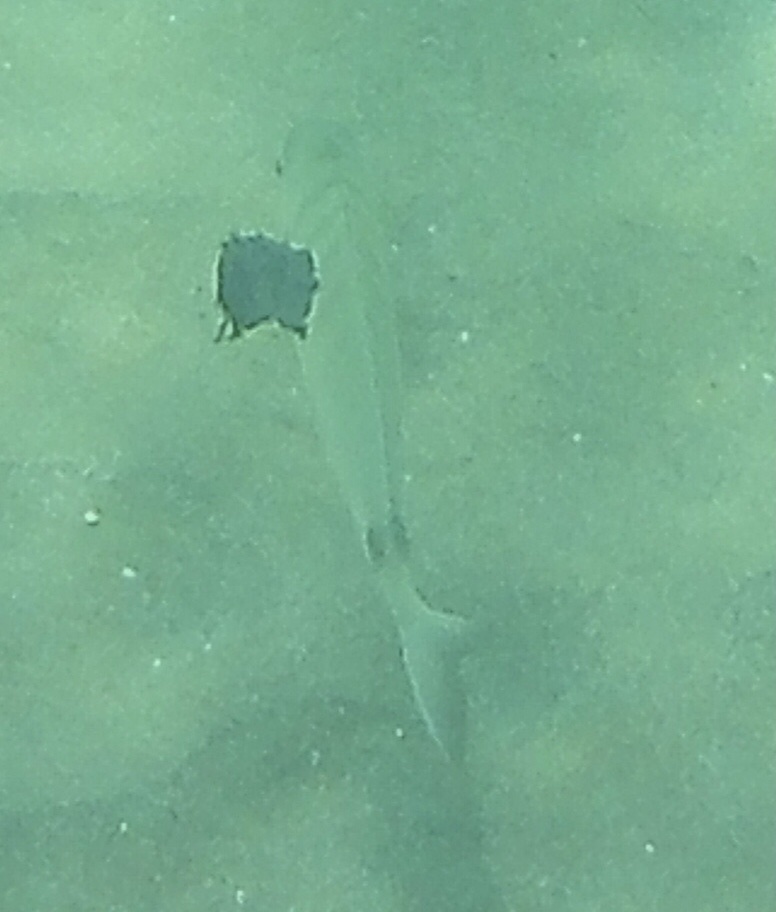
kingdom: Animalia
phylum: Chordata
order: Perciformes
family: Sparidae
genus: Diplodus
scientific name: Diplodus sargus
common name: White seabream
